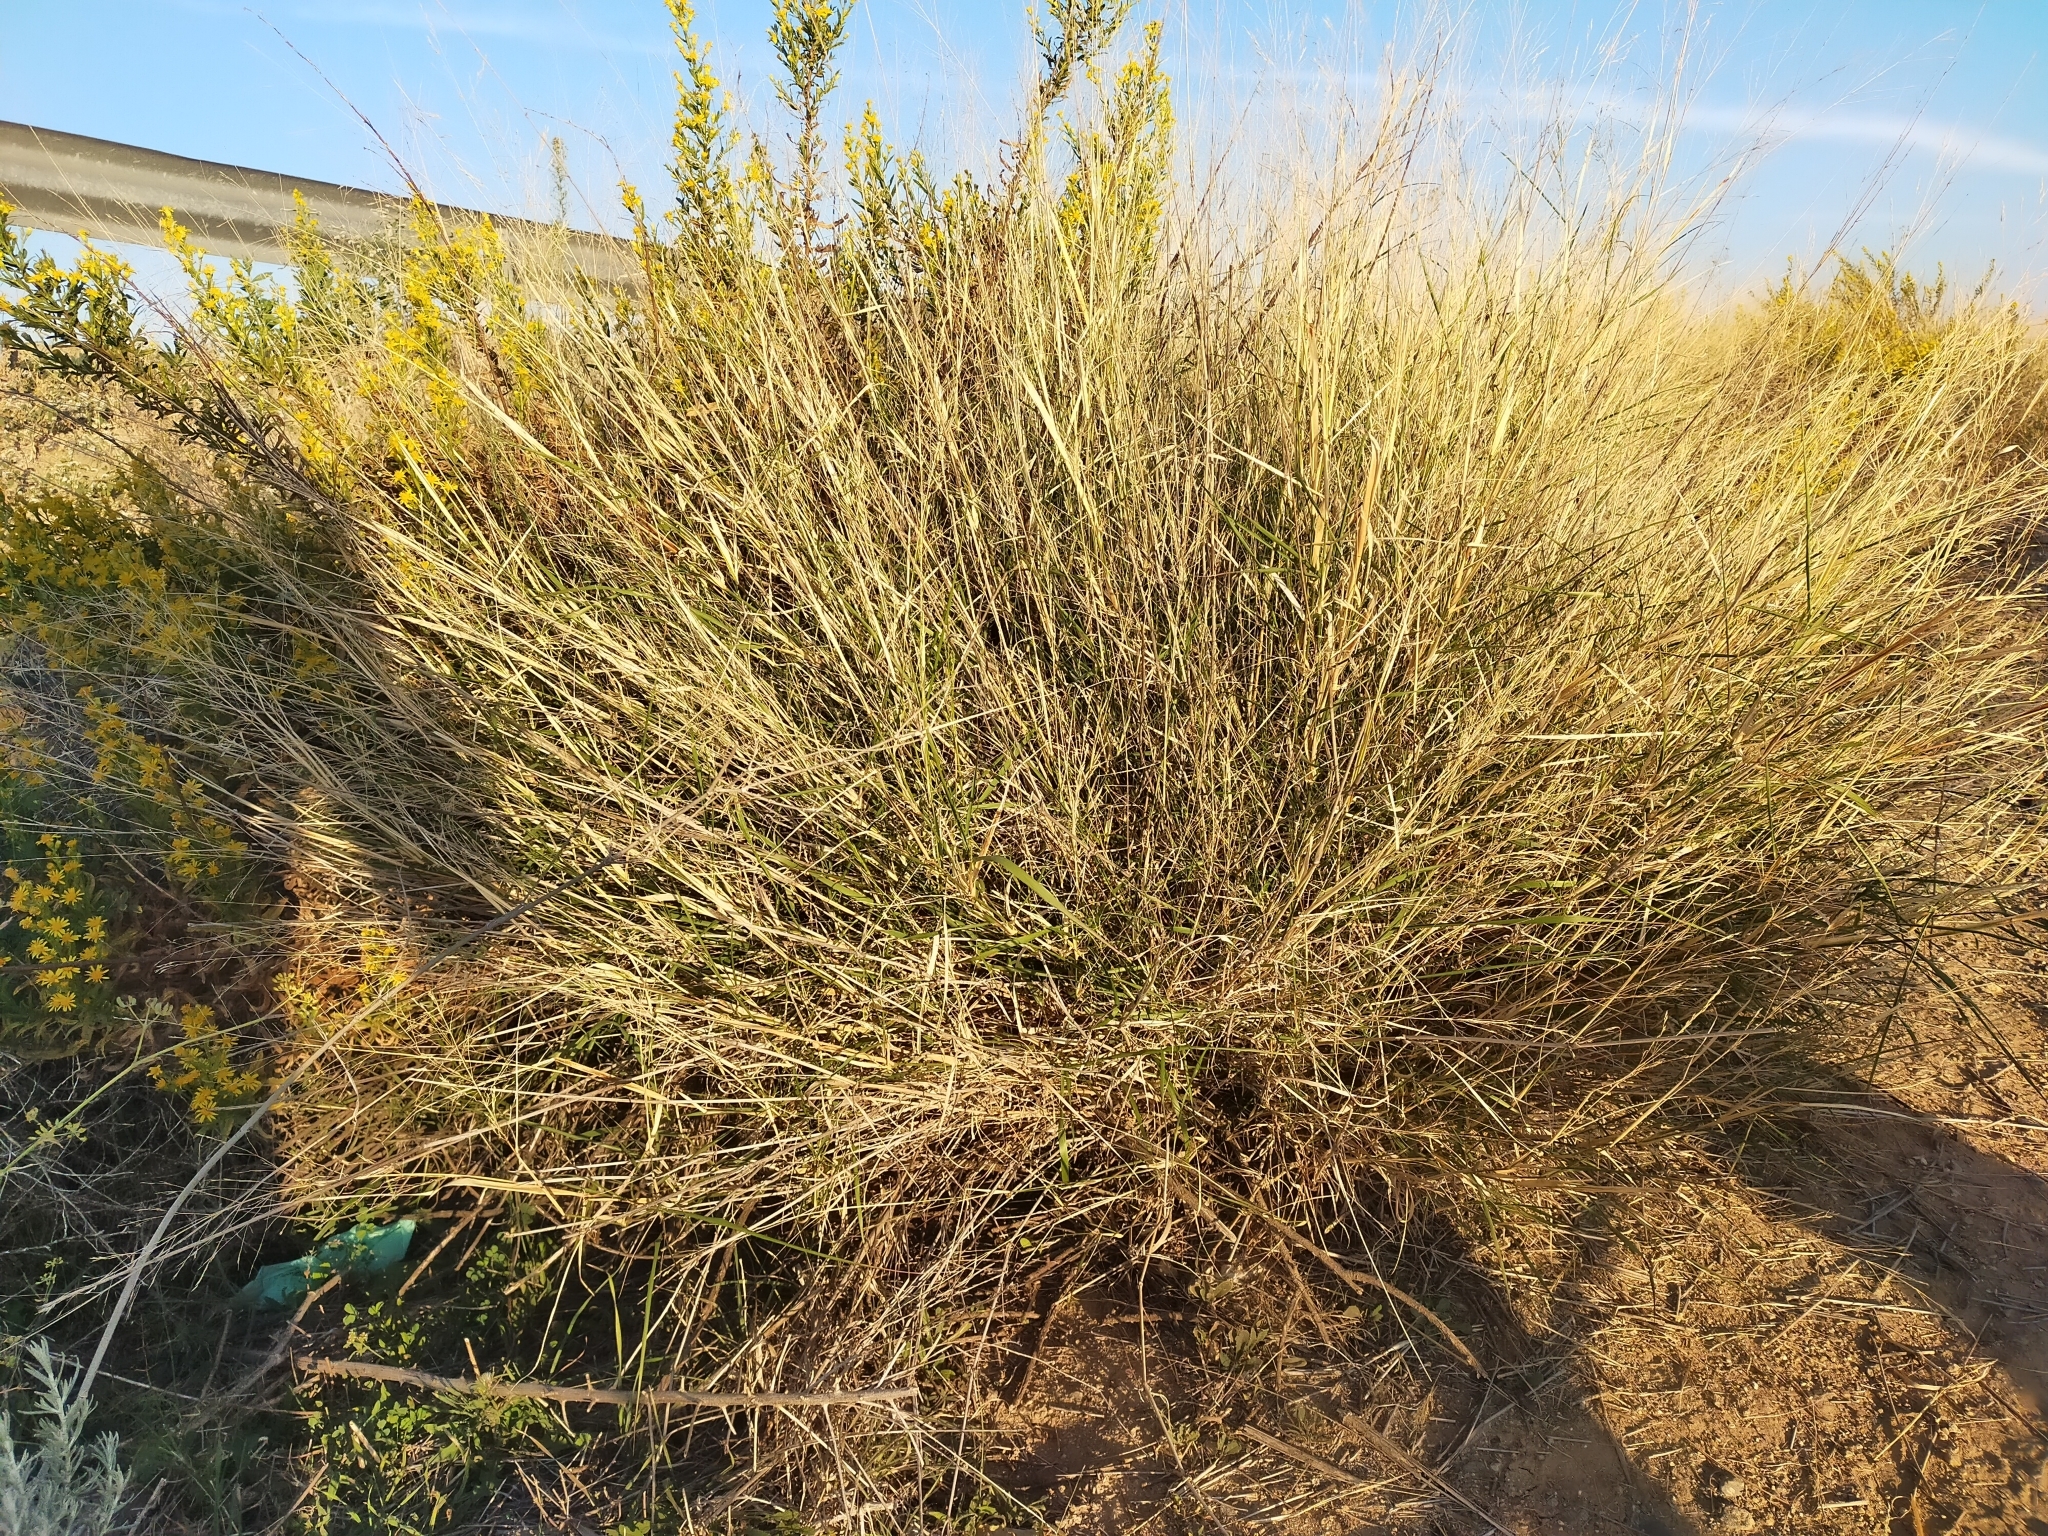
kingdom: Plantae
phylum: Tracheophyta
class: Liliopsida
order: Poales
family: Poaceae
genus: Oloptum
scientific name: Oloptum miliaceum
